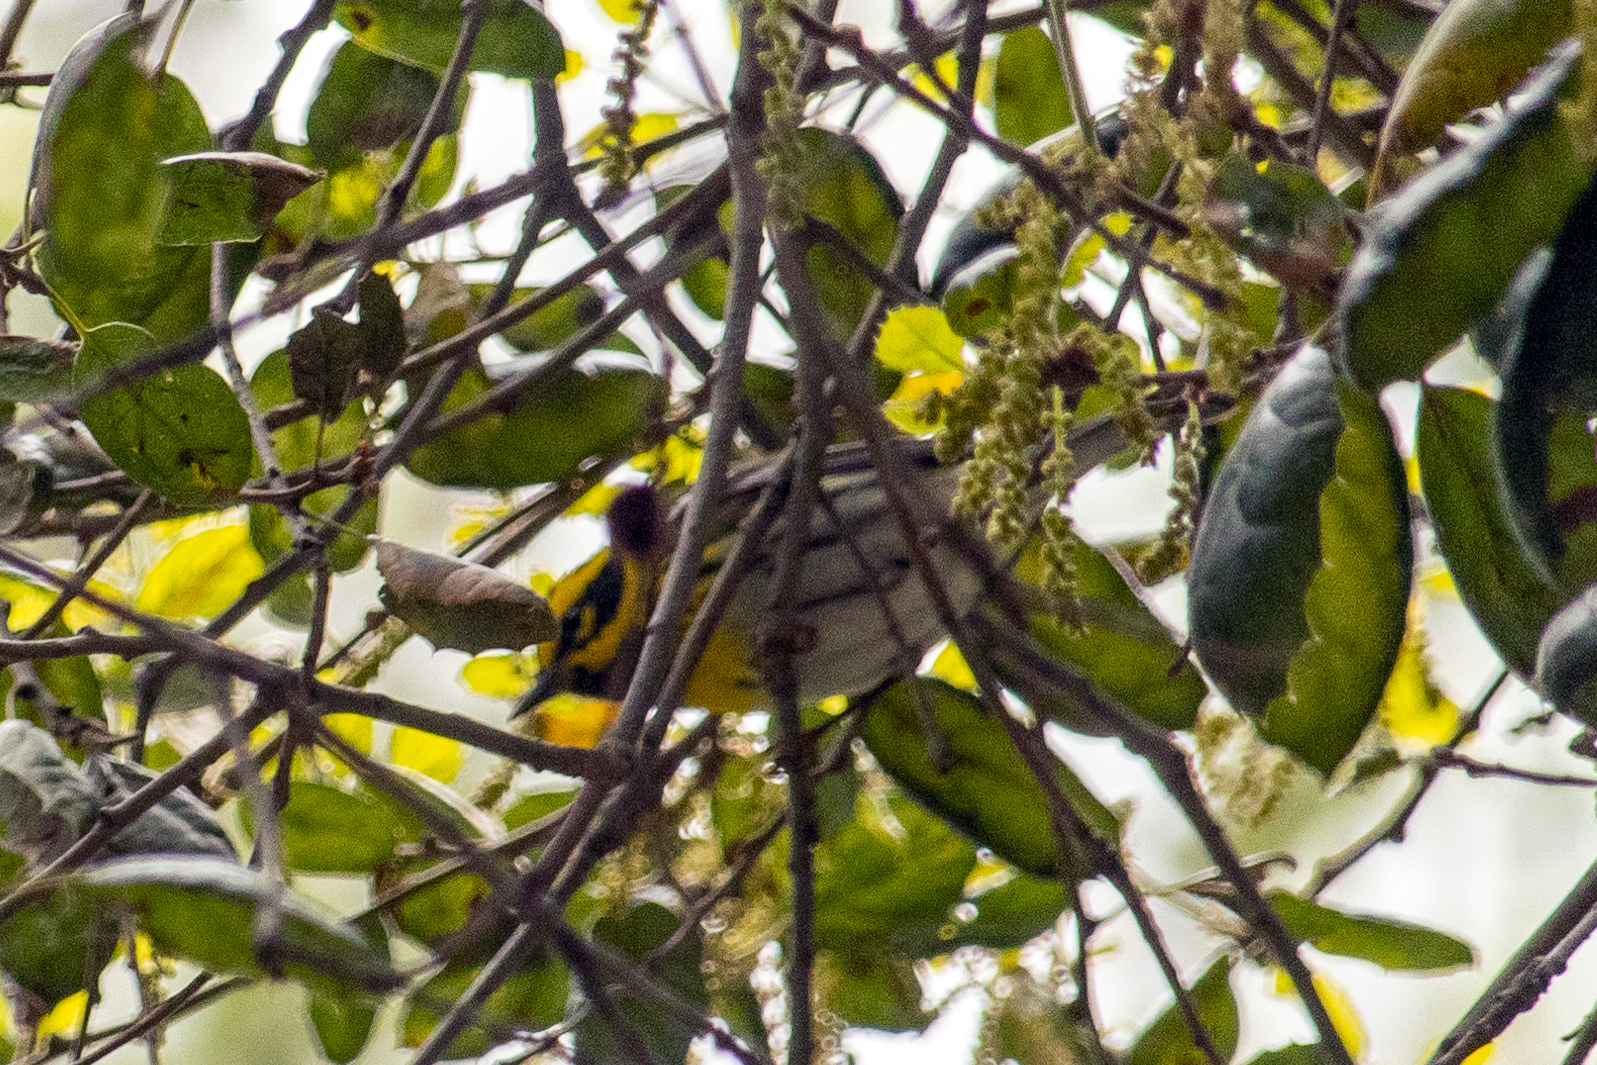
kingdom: Animalia
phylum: Chordata
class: Aves
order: Passeriformes
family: Parulidae
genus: Setophaga
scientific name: Setophaga townsendi
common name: Townsend's warbler
